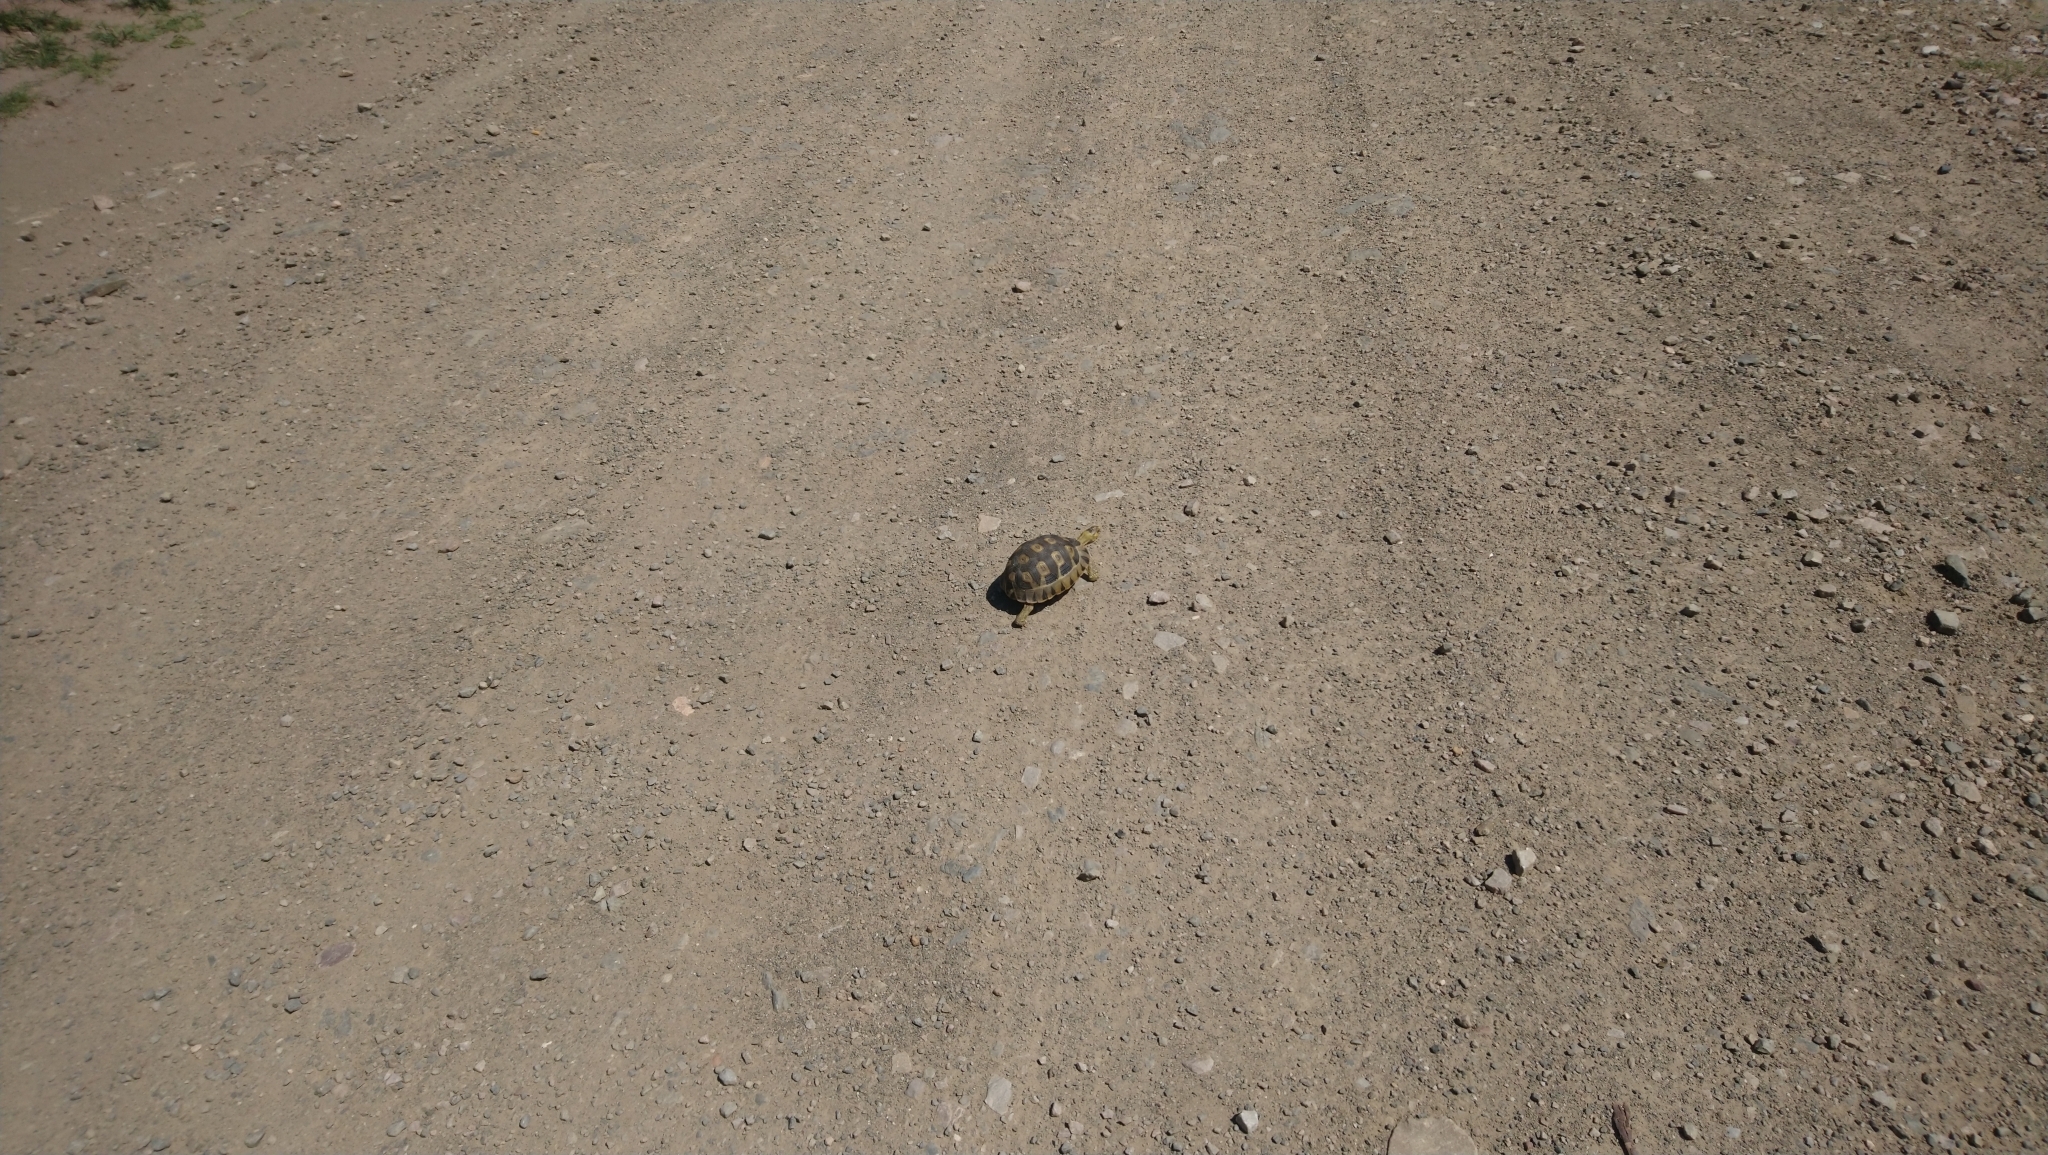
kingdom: Animalia
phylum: Chordata
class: Testudines
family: Testudinidae
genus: Chersina
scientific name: Chersina angulata
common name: South african bowsprit tortoise
